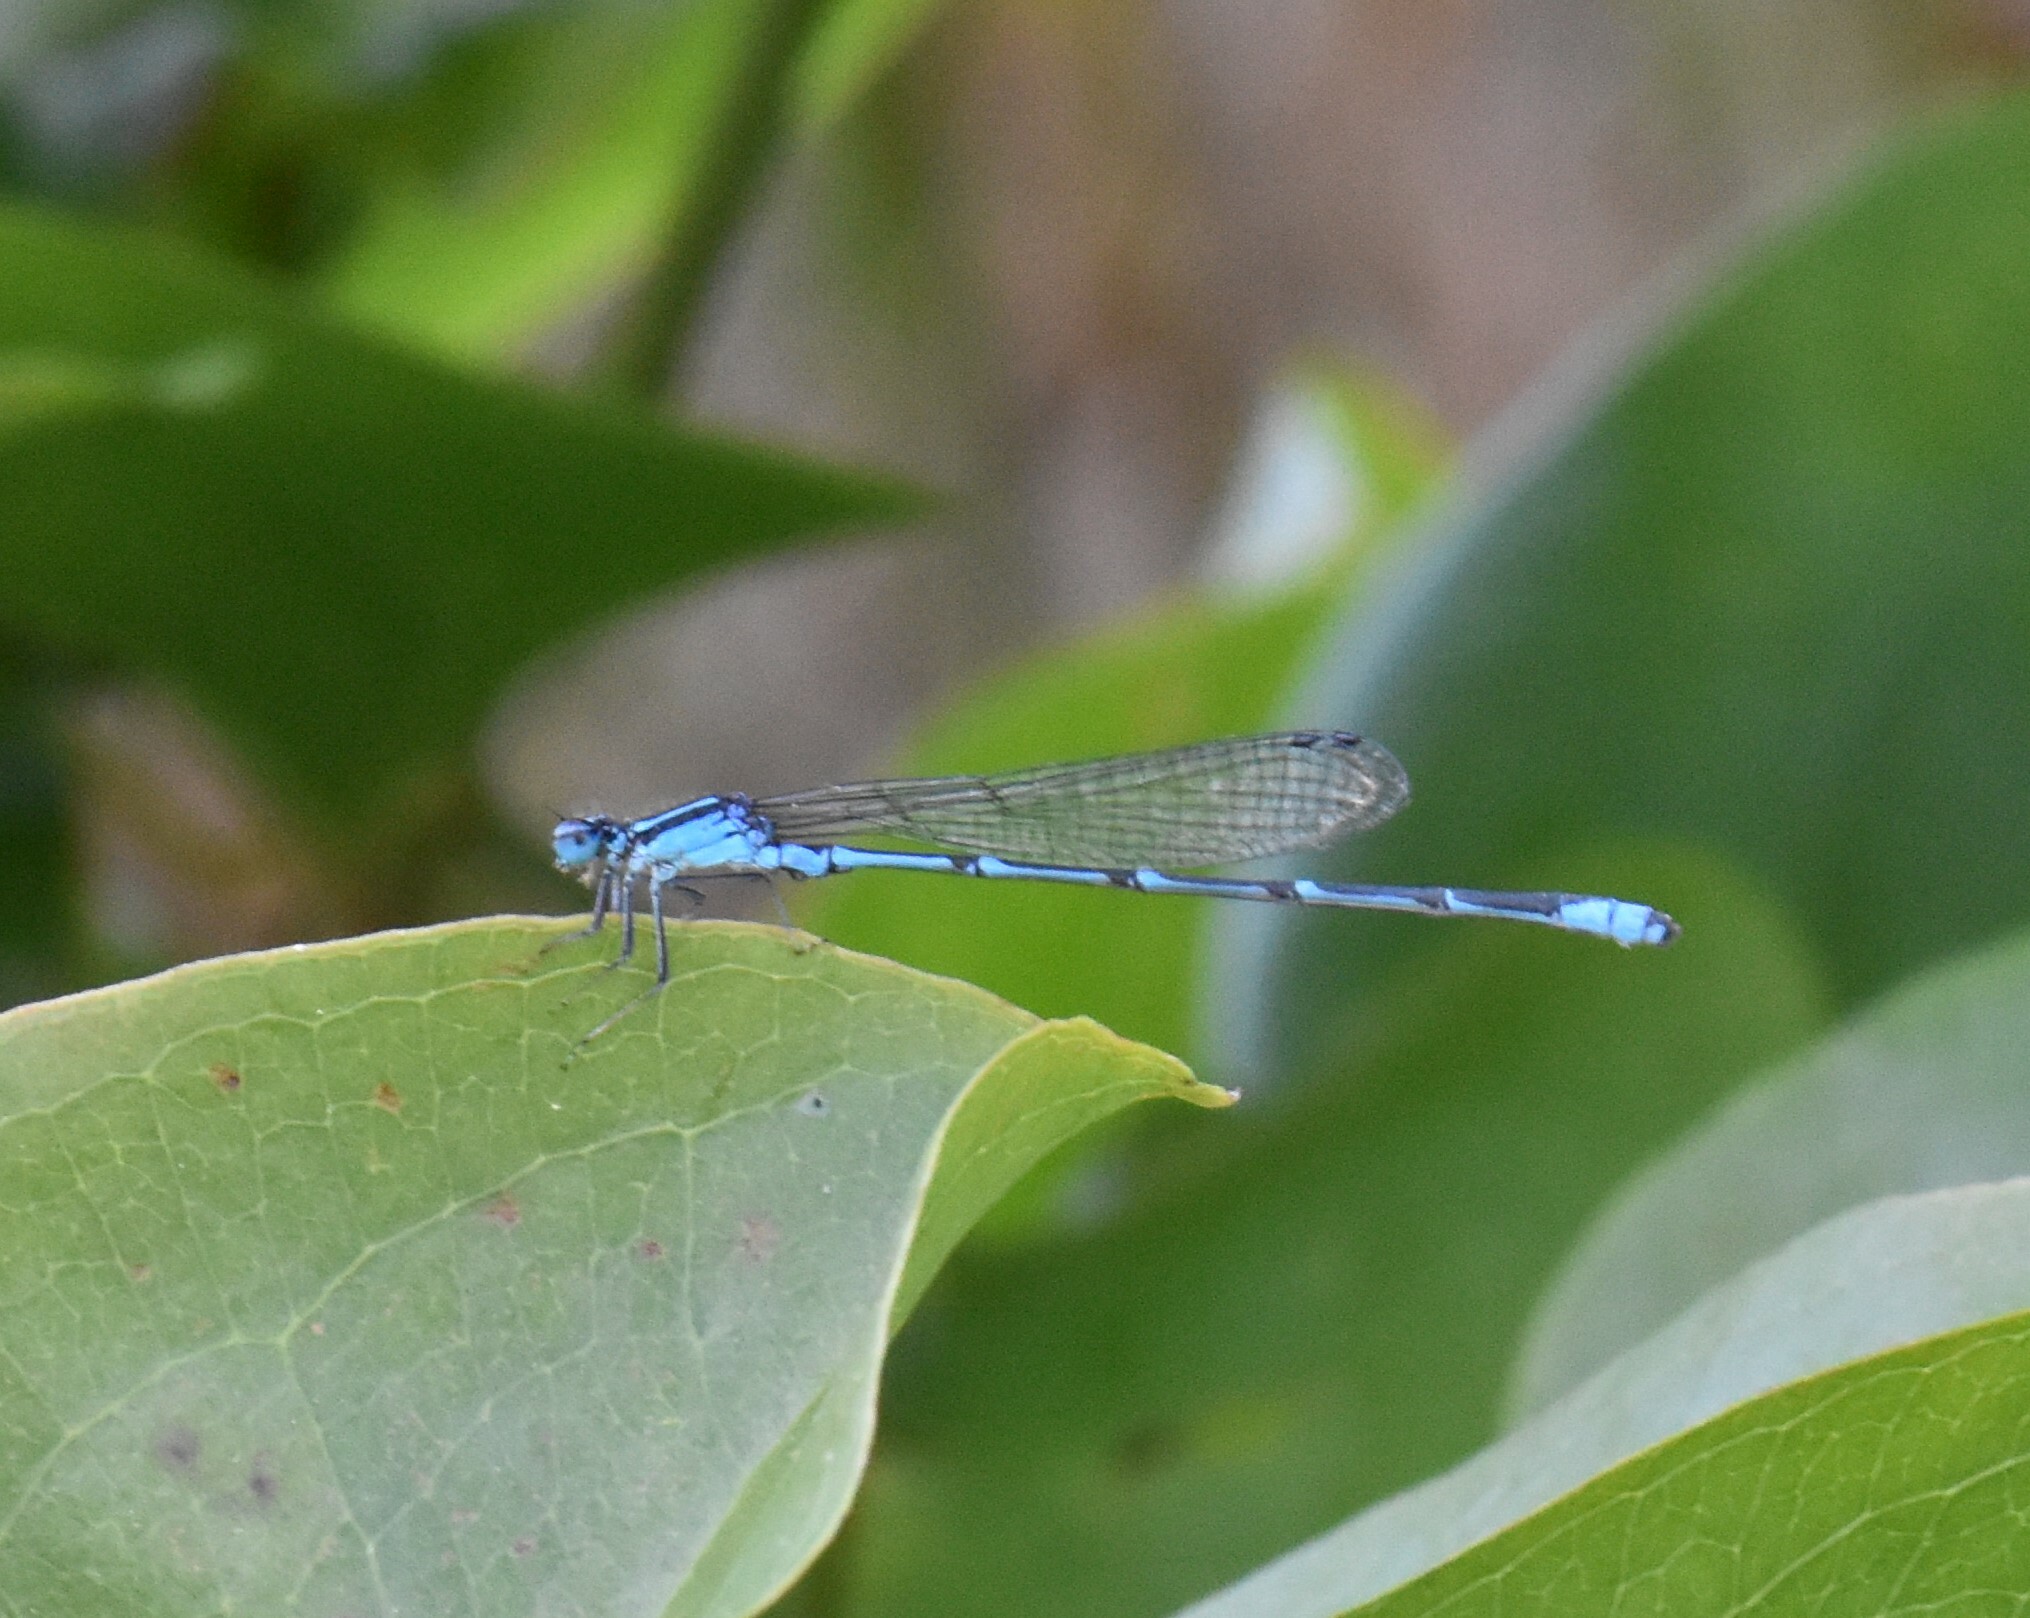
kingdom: Animalia
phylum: Arthropoda
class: Insecta
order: Odonata
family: Coenagrionidae
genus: Enallagma
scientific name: Enallagma exsulans
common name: Stream bluet
